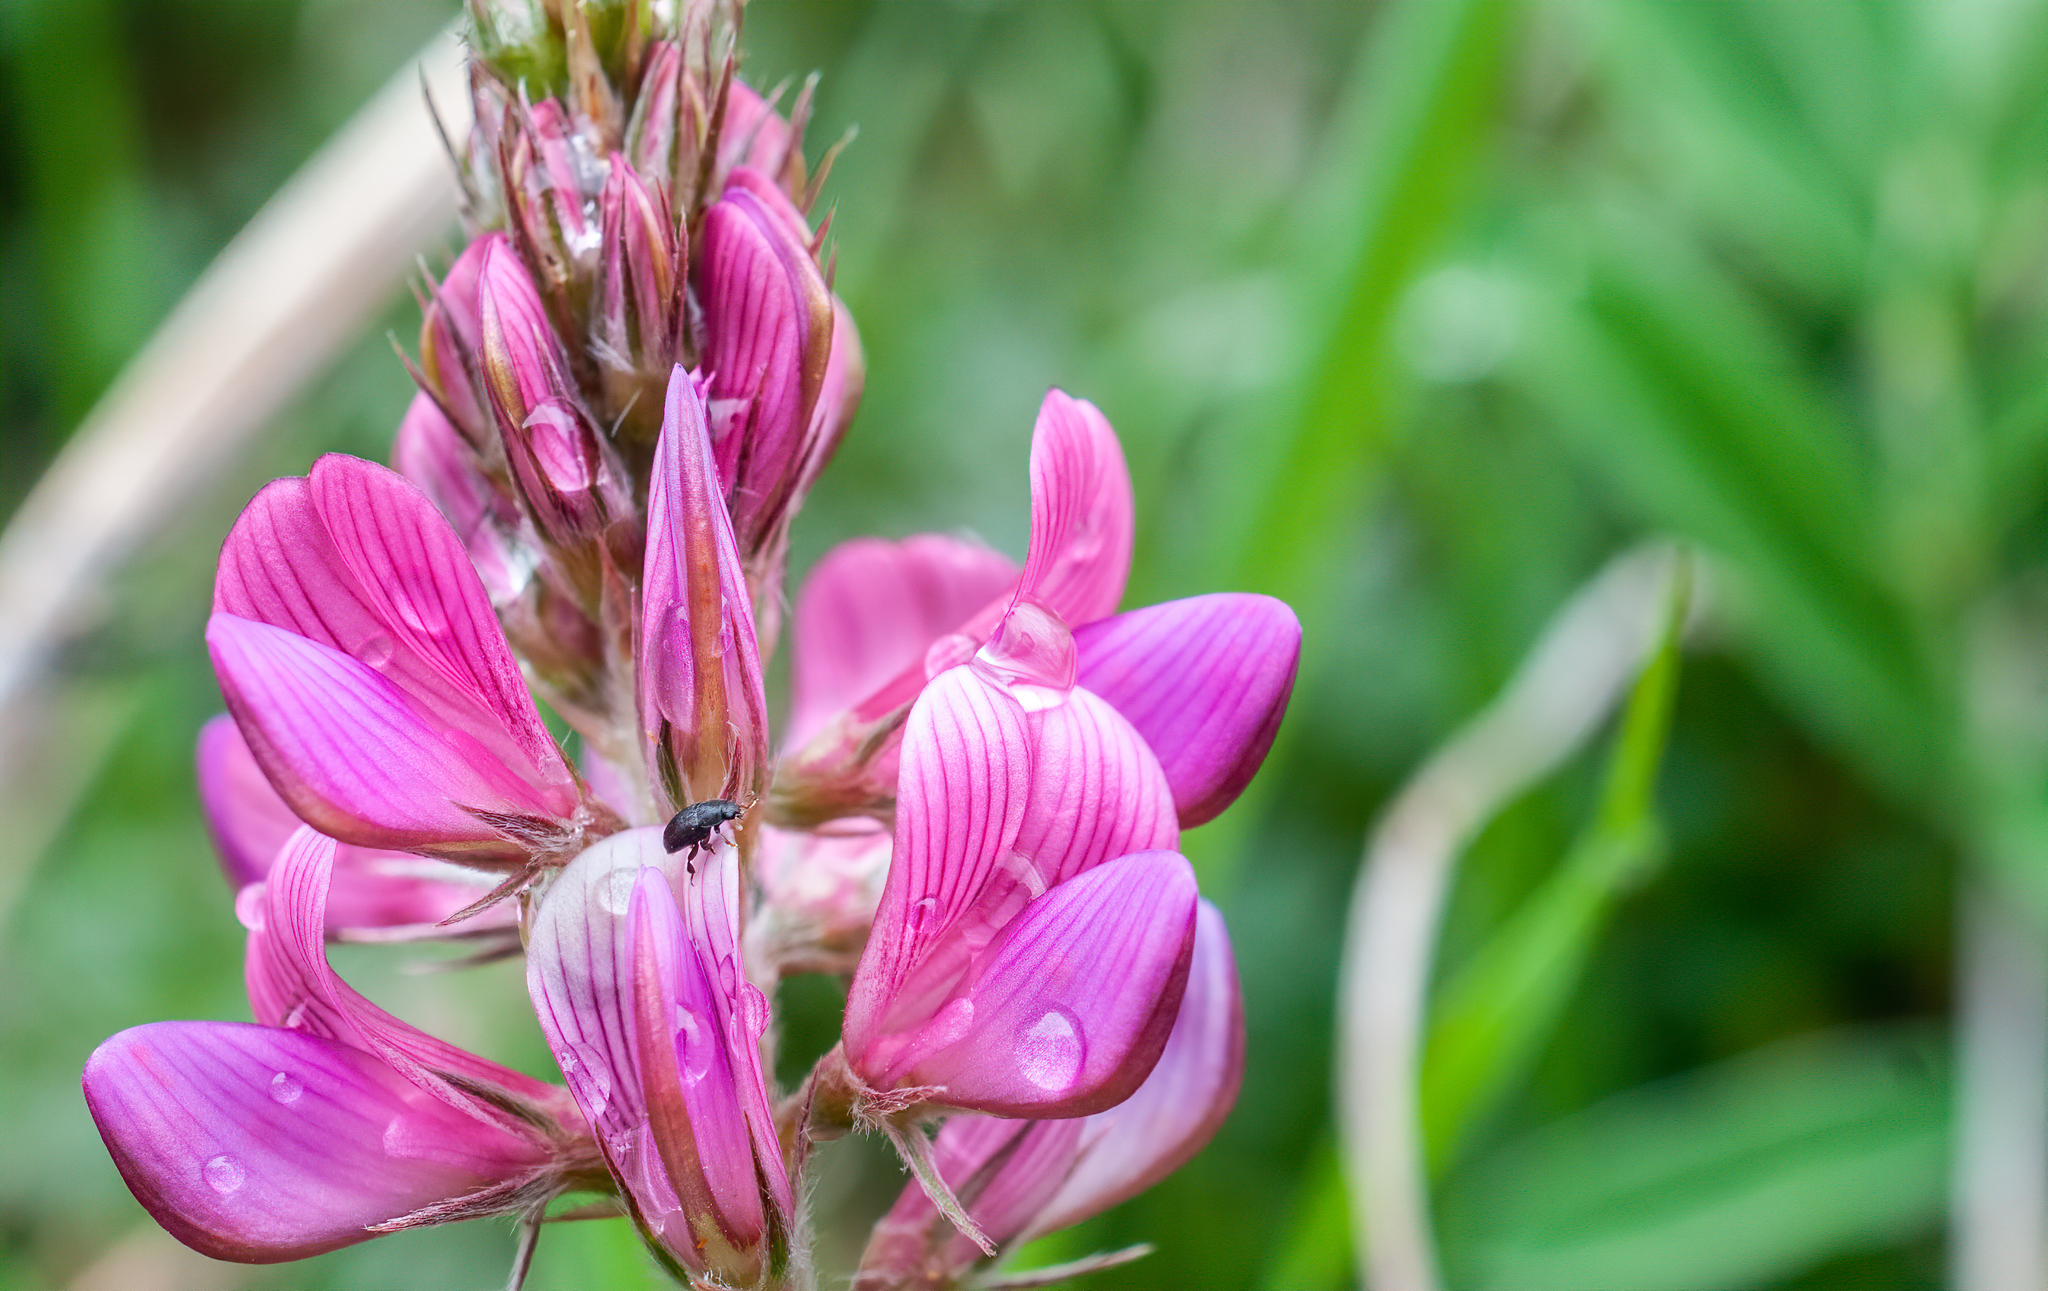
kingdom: Plantae
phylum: Tracheophyta
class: Magnoliopsida
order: Fabales
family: Fabaceae
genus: Onobrychis
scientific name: Onobrychis viciifolia
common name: Sainfoin
